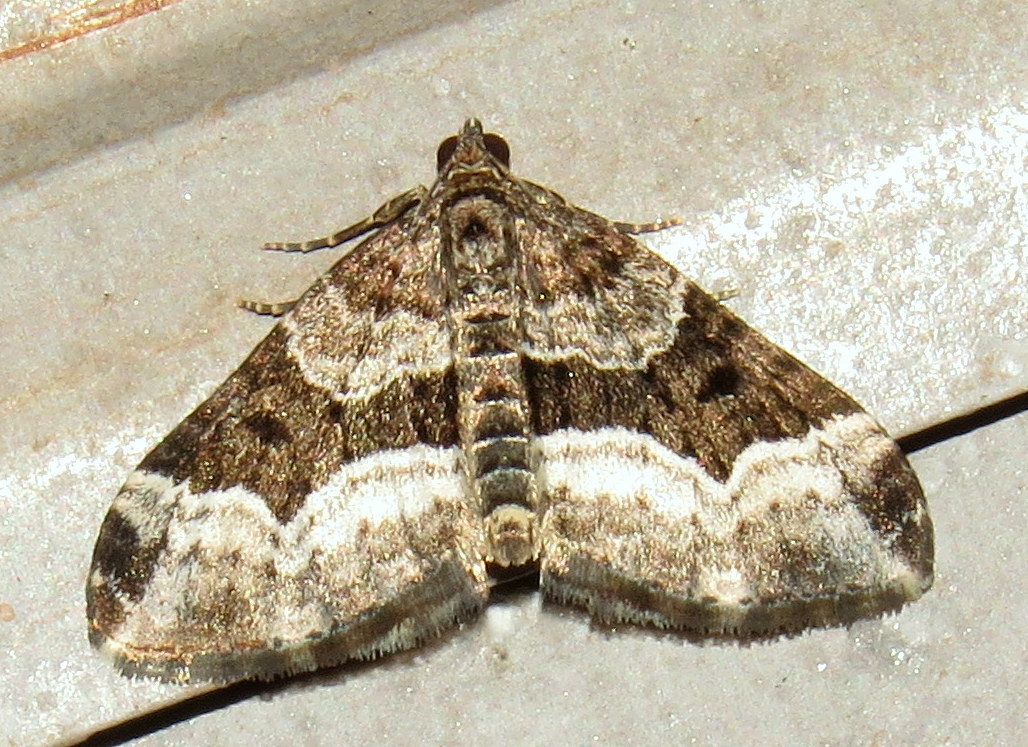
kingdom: Animalia
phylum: Arthropoda
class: Insecta
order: Lepidoptera
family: Geometridae
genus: Euphyia
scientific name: Euphyia intermediata
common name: Sharp-angled carpet
